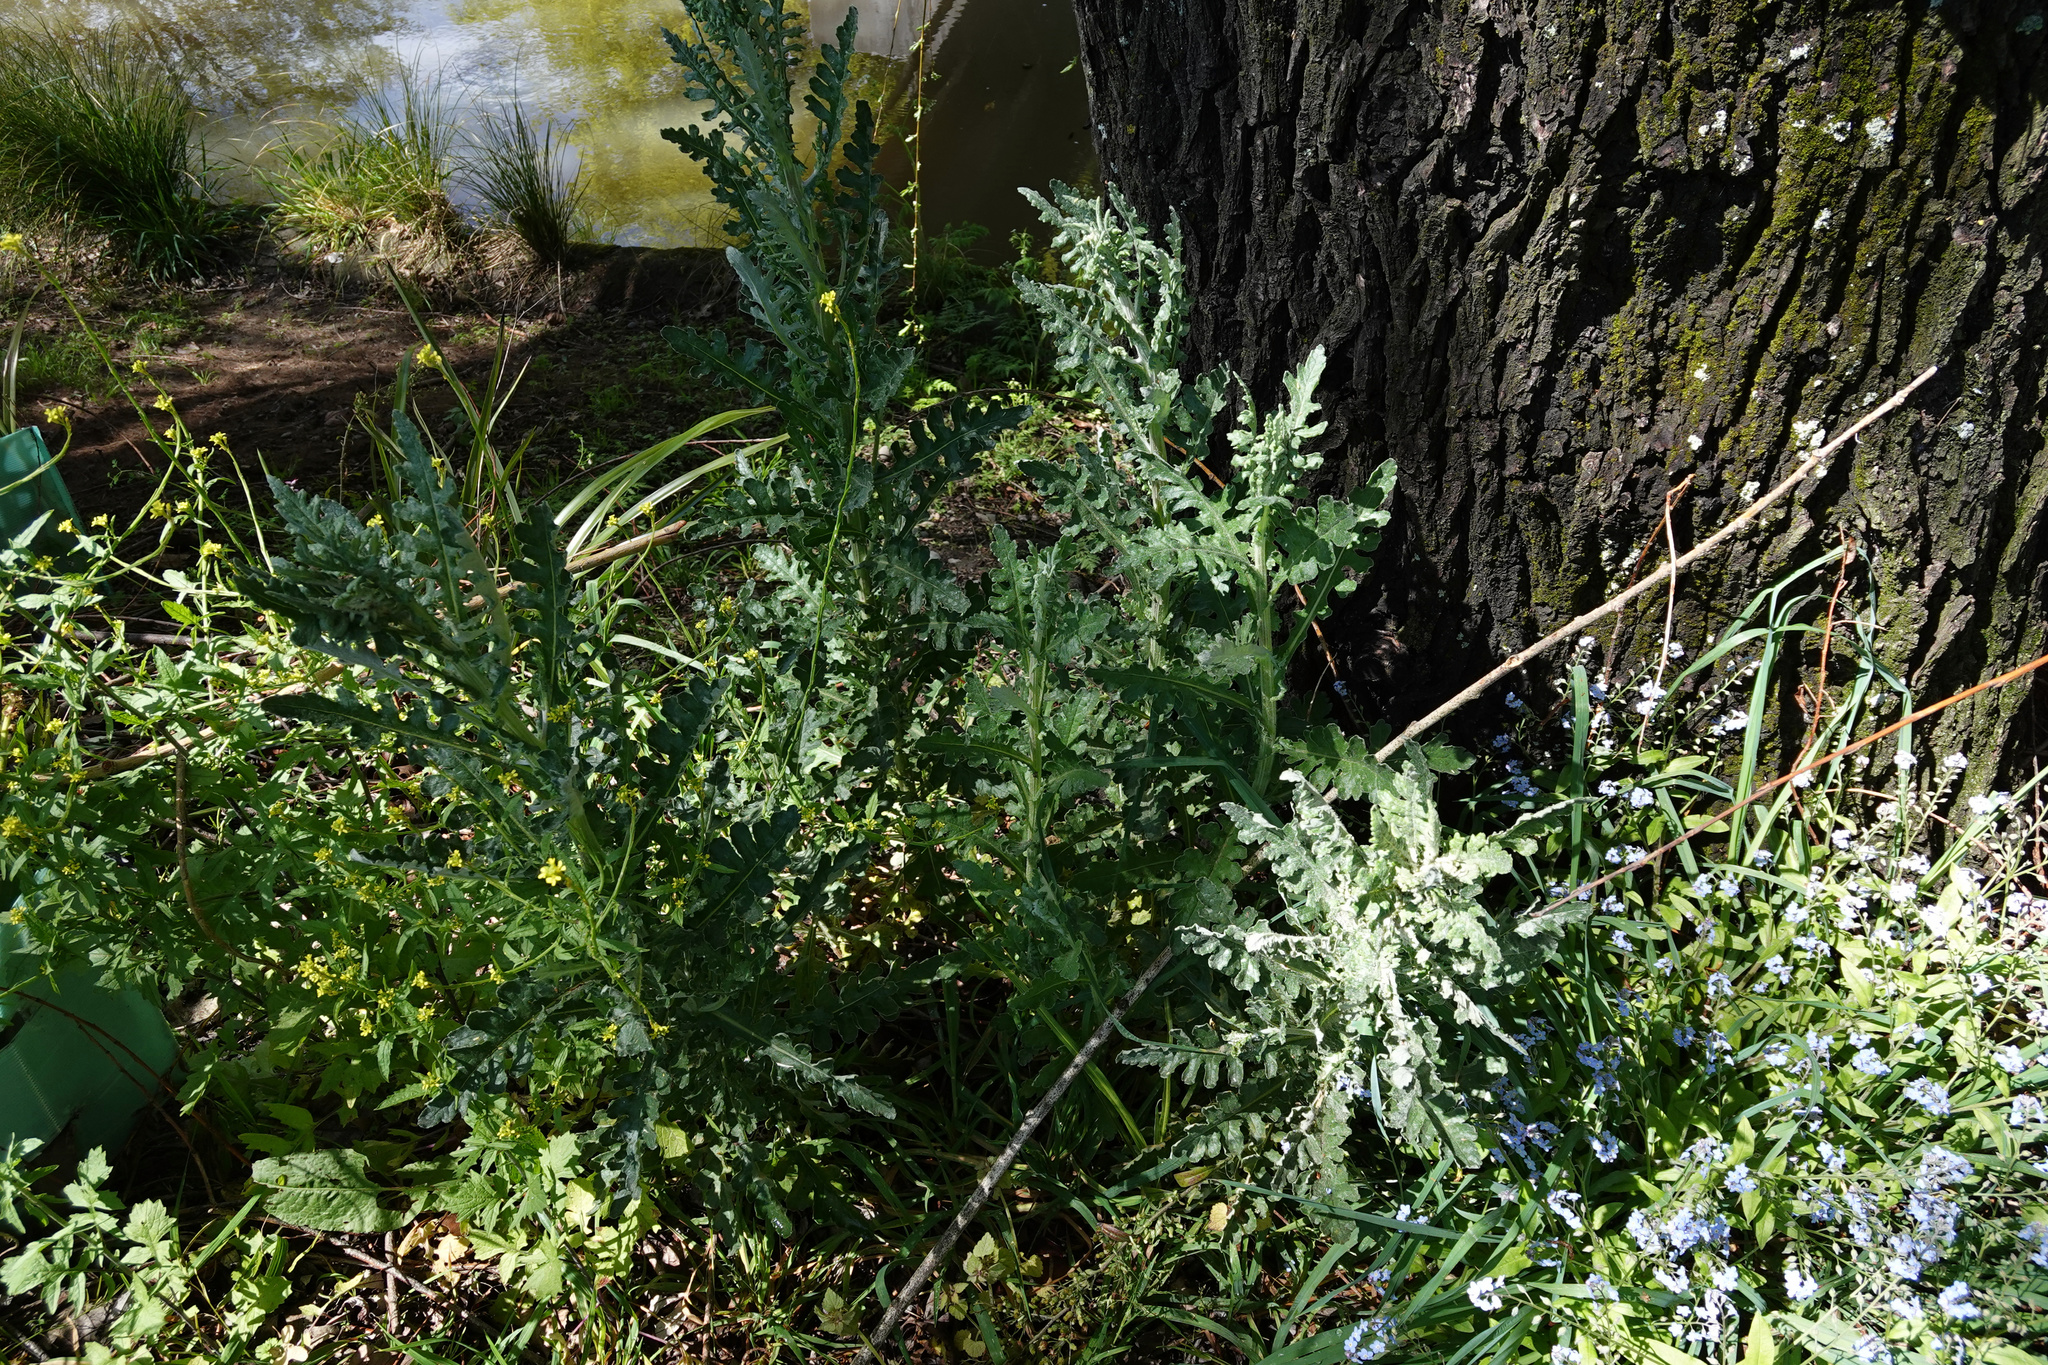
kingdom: Plantae
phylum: Tracheophyta
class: Magnoliopsida
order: Asterales
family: Asteraceae
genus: Senecio
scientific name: Senecio glomeratus
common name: Cutleaf burnweed
